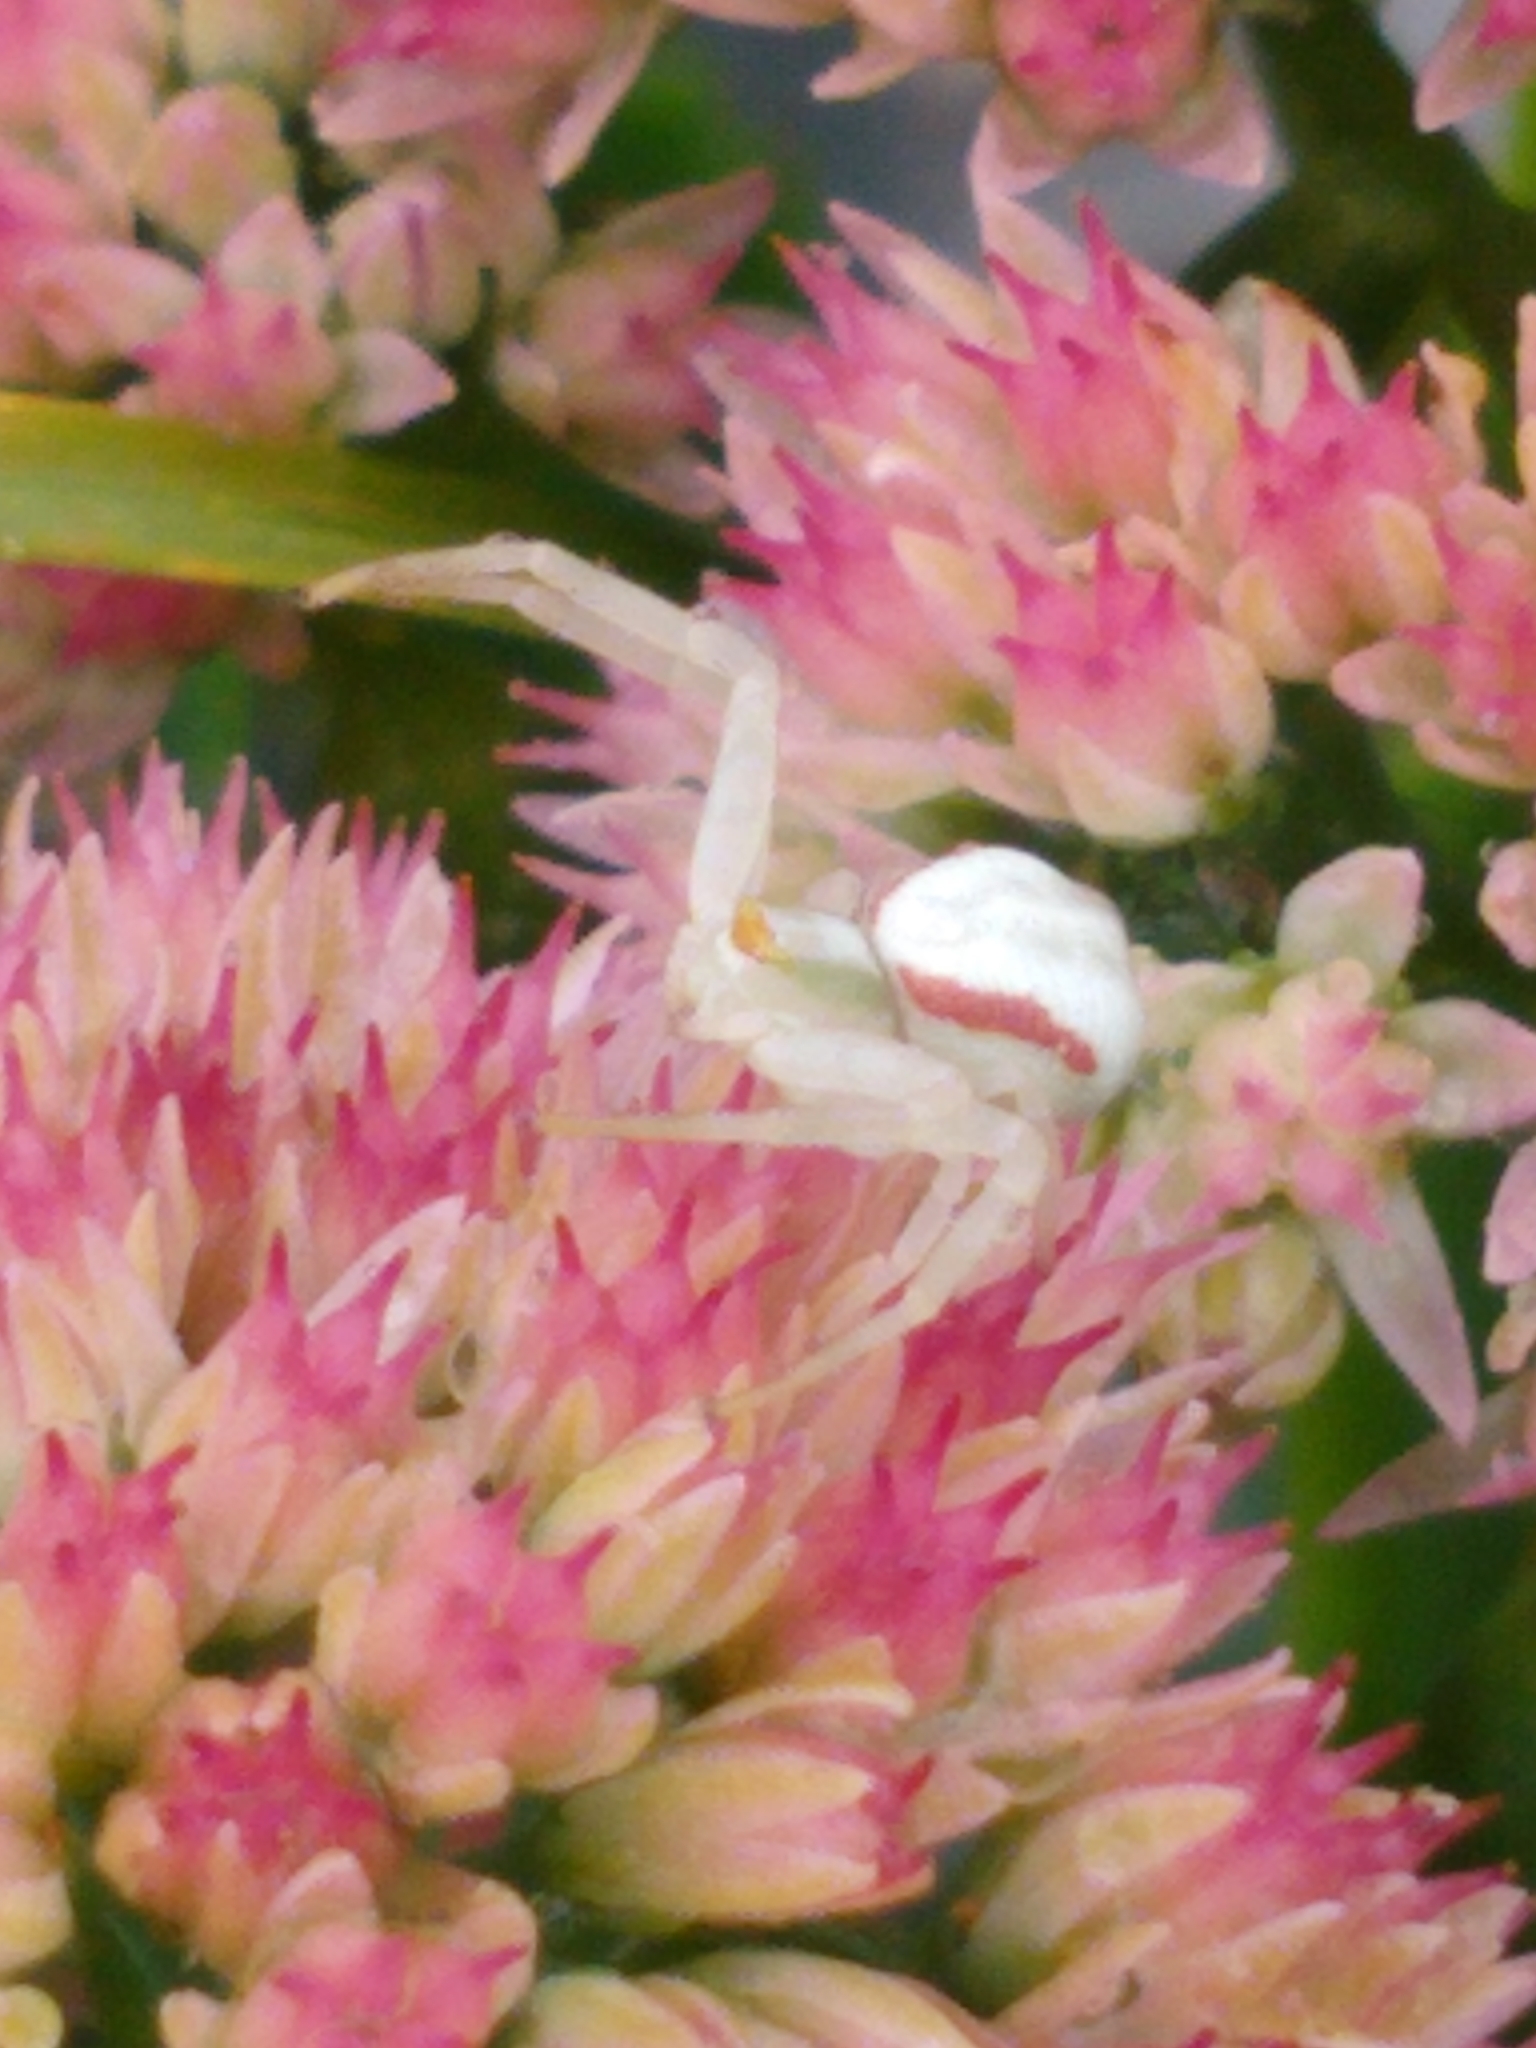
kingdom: Animalia
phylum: Arthropoda
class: Arachnida
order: Araneae
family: Thomisidae
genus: Misumena
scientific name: Misumena vatia
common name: Goldenrod crab spider
